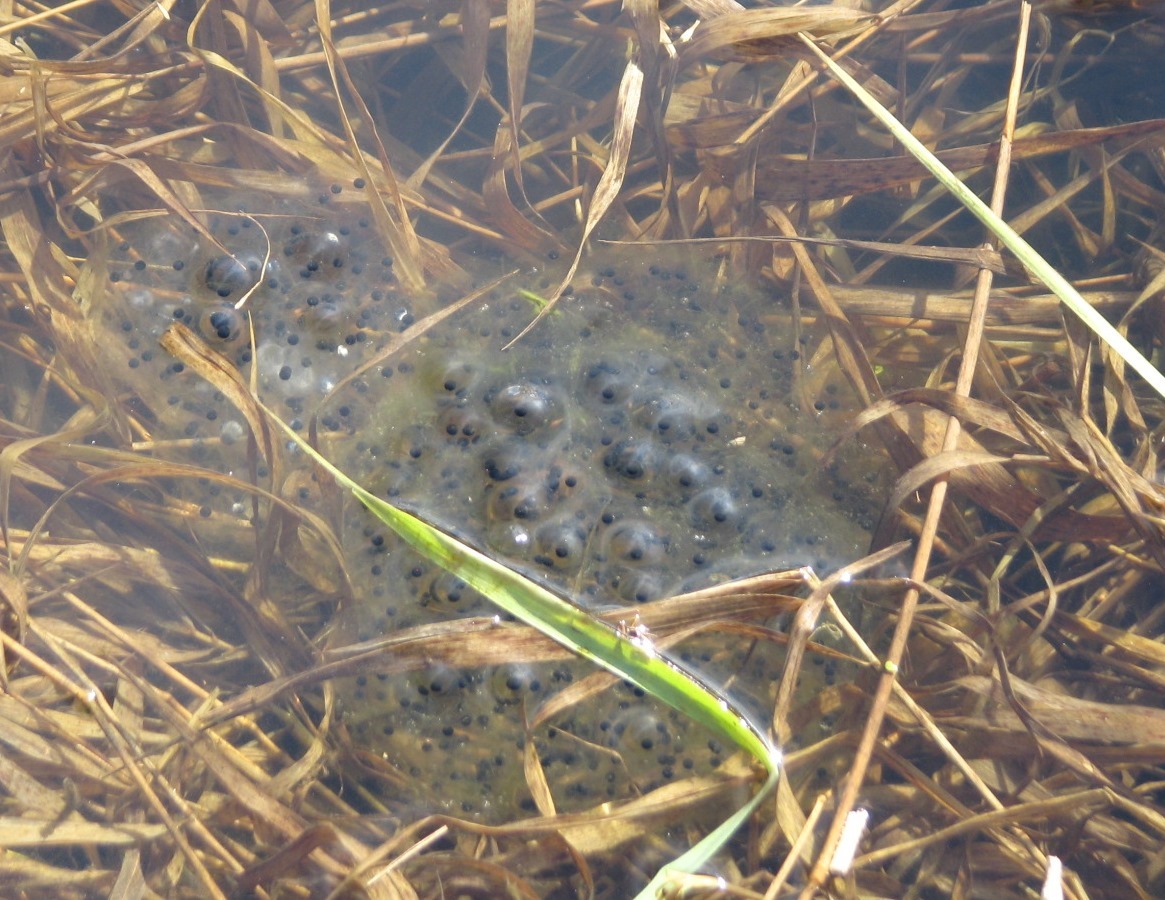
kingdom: Animalia
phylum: Chordata
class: Amphibia
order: Anura
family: Ranidae
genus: Rana
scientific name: Rana pretiosa
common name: Oregon spotted frog
